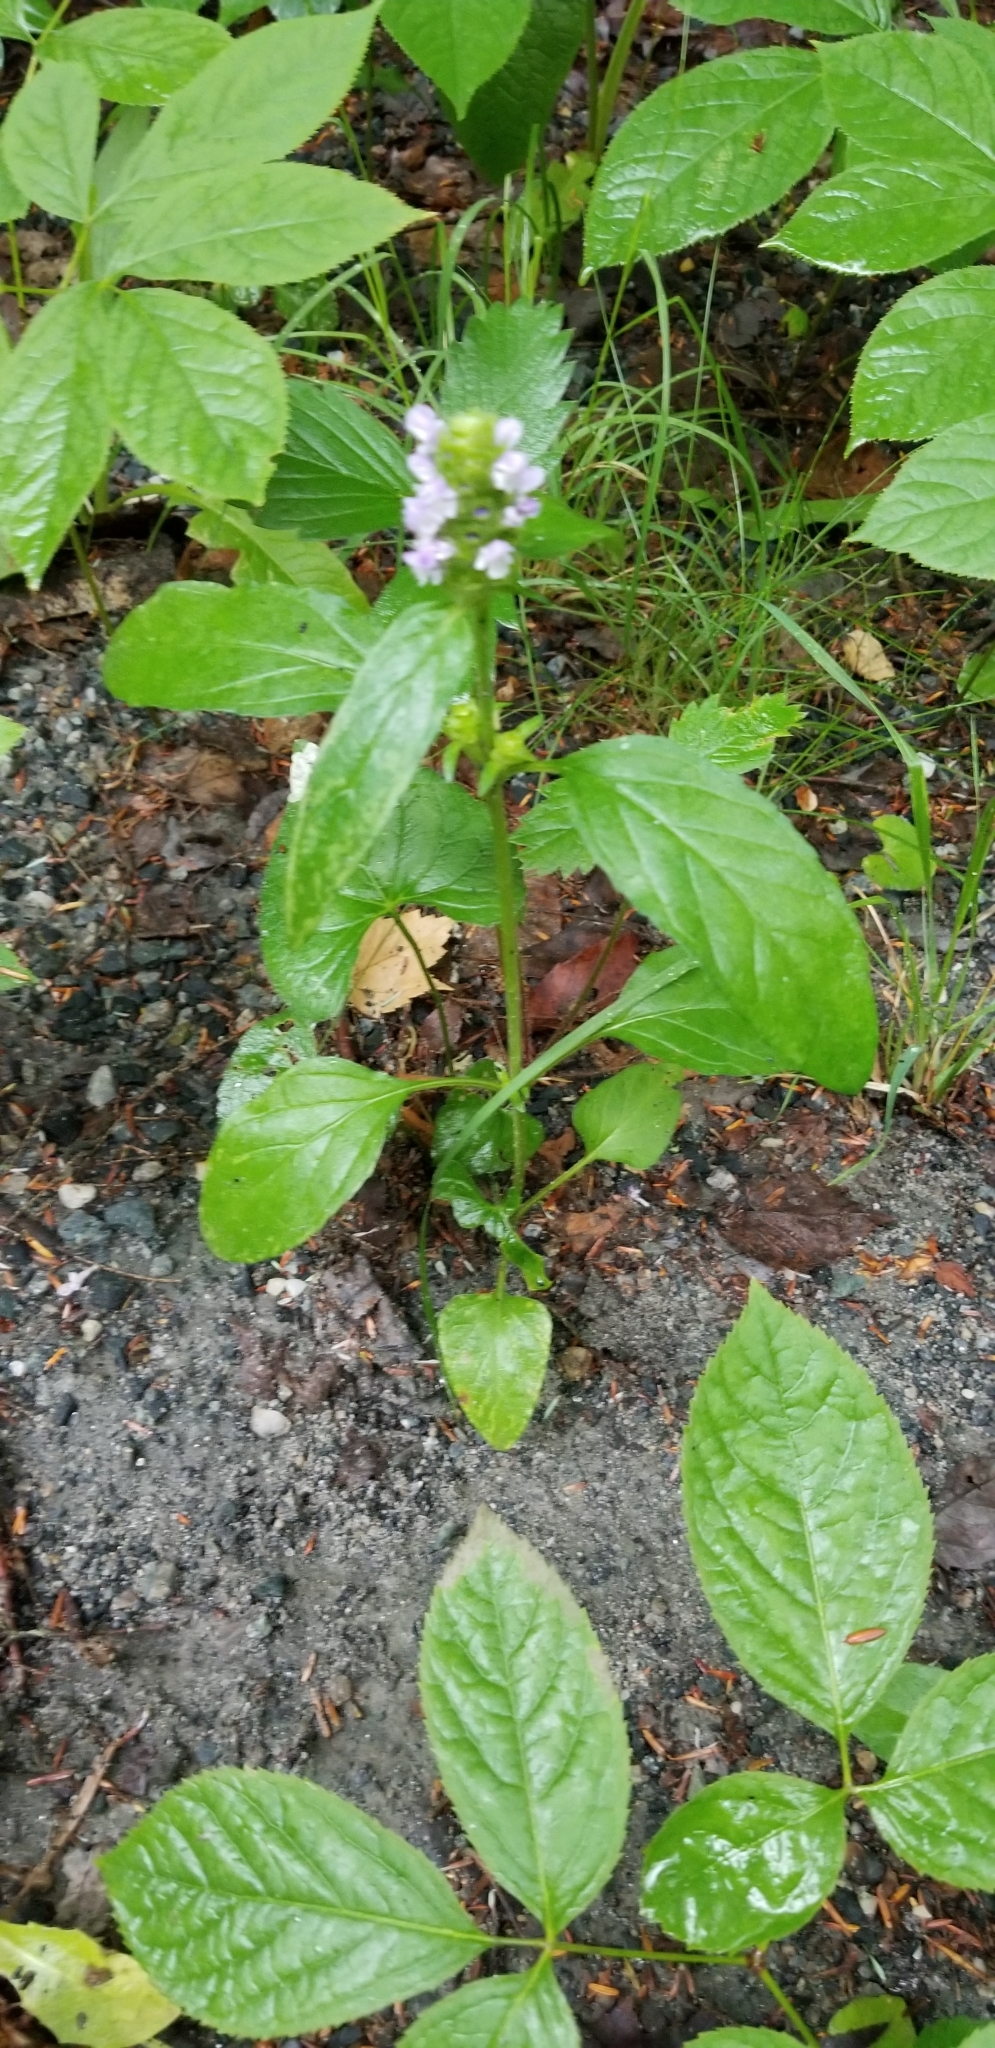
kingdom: Plantae
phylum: Tracheophyta
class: Magnoliopsida
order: Lamiales
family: Lamiaceae
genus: Prunella
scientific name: Prunella vulgaris
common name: Heal-all
